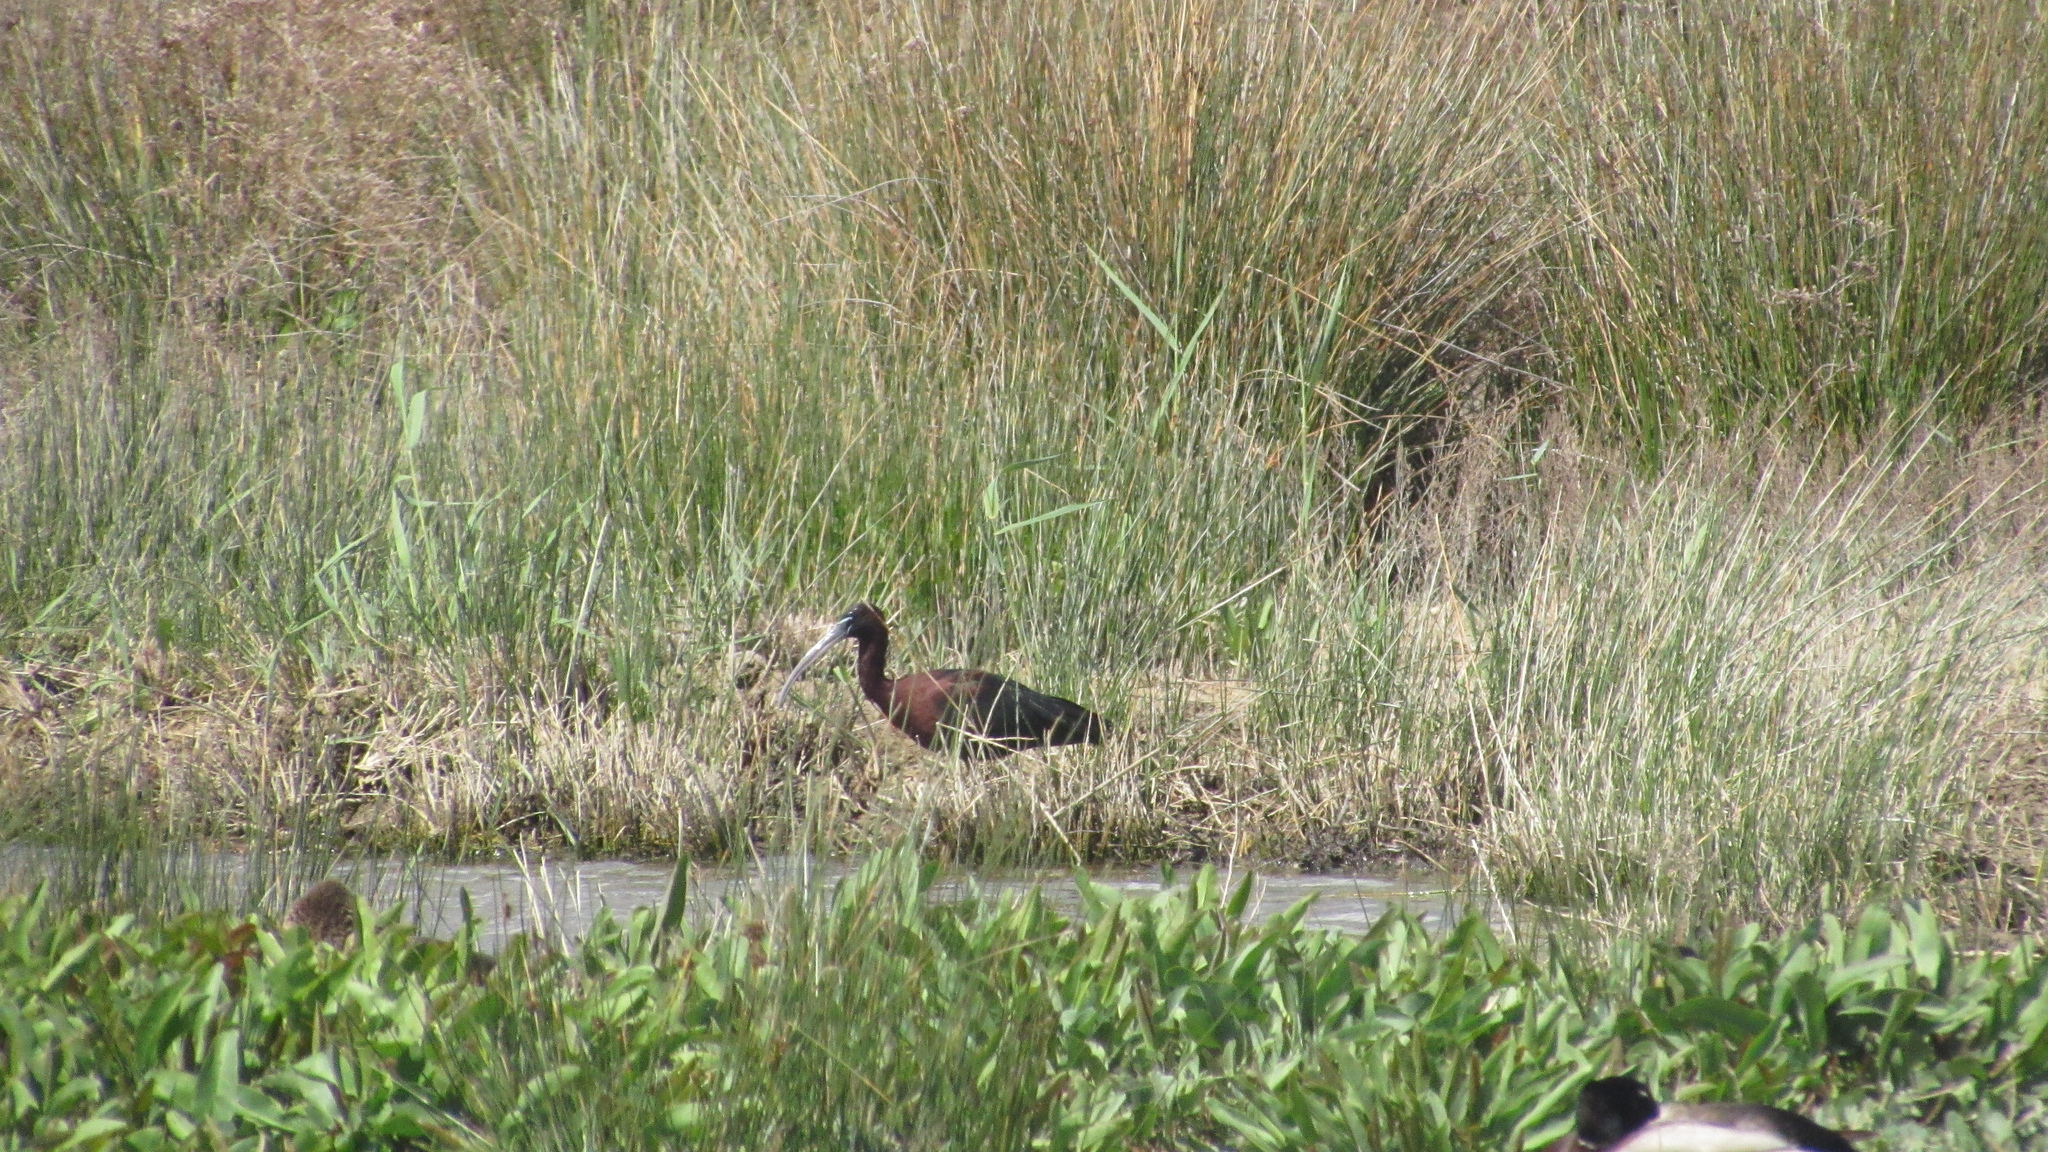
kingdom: Animalia
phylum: Chordata
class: Aves
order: Pelecaniformes
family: Threskiornithidae
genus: Plegadis
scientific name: Plegadis falcinellus
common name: Glossy ibis
